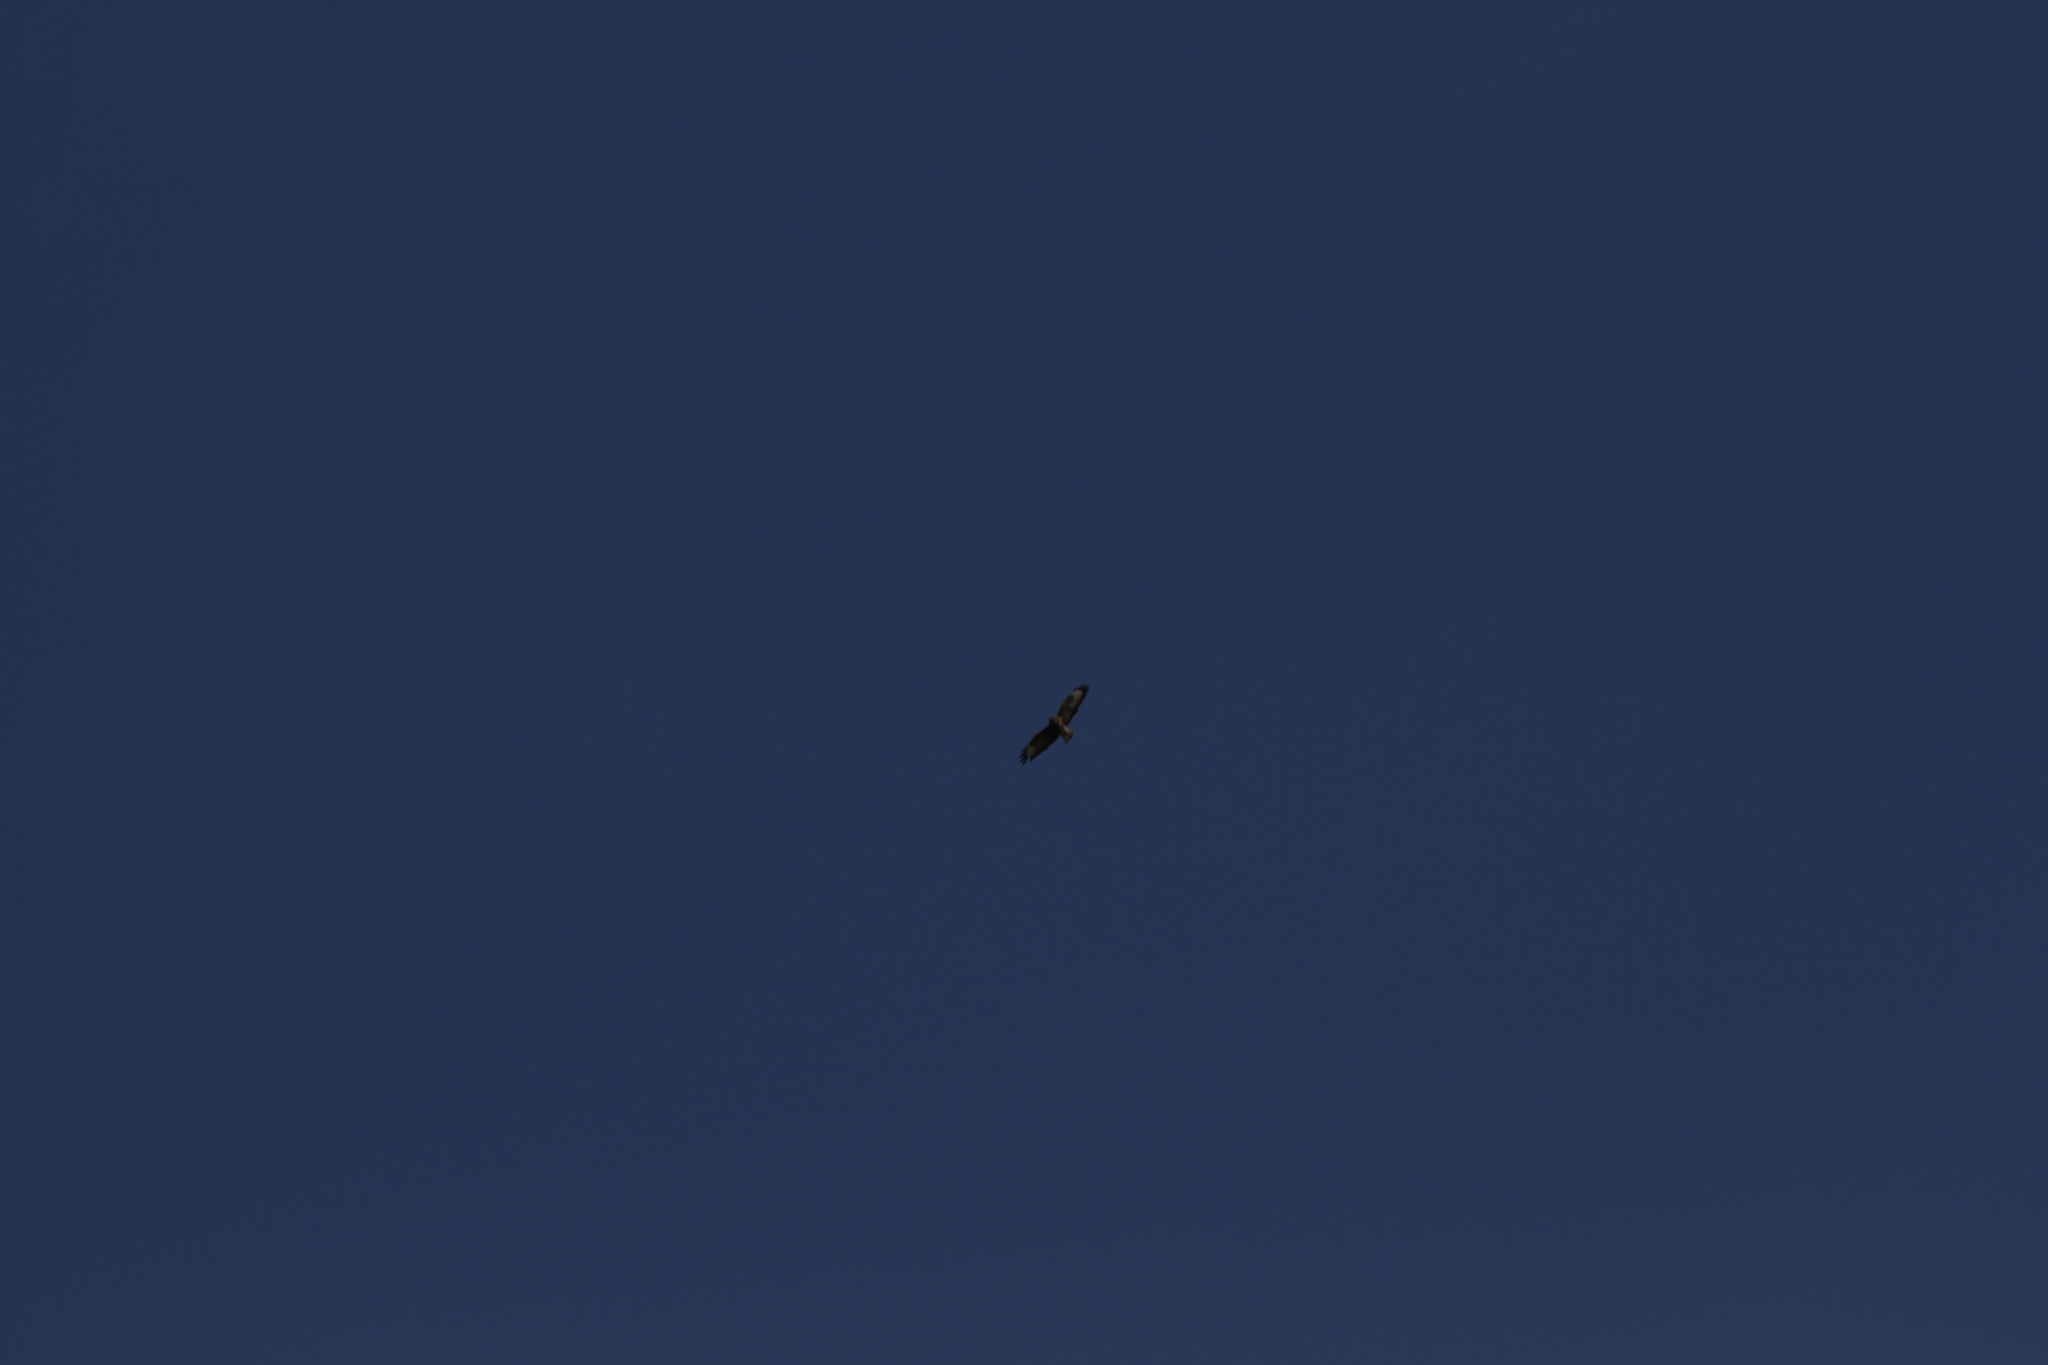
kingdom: Animalia
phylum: Chordata
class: Aves
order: Accipitriformes
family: Accipitridae
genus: Buteo
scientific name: Buteo buteo
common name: Common buzzard
